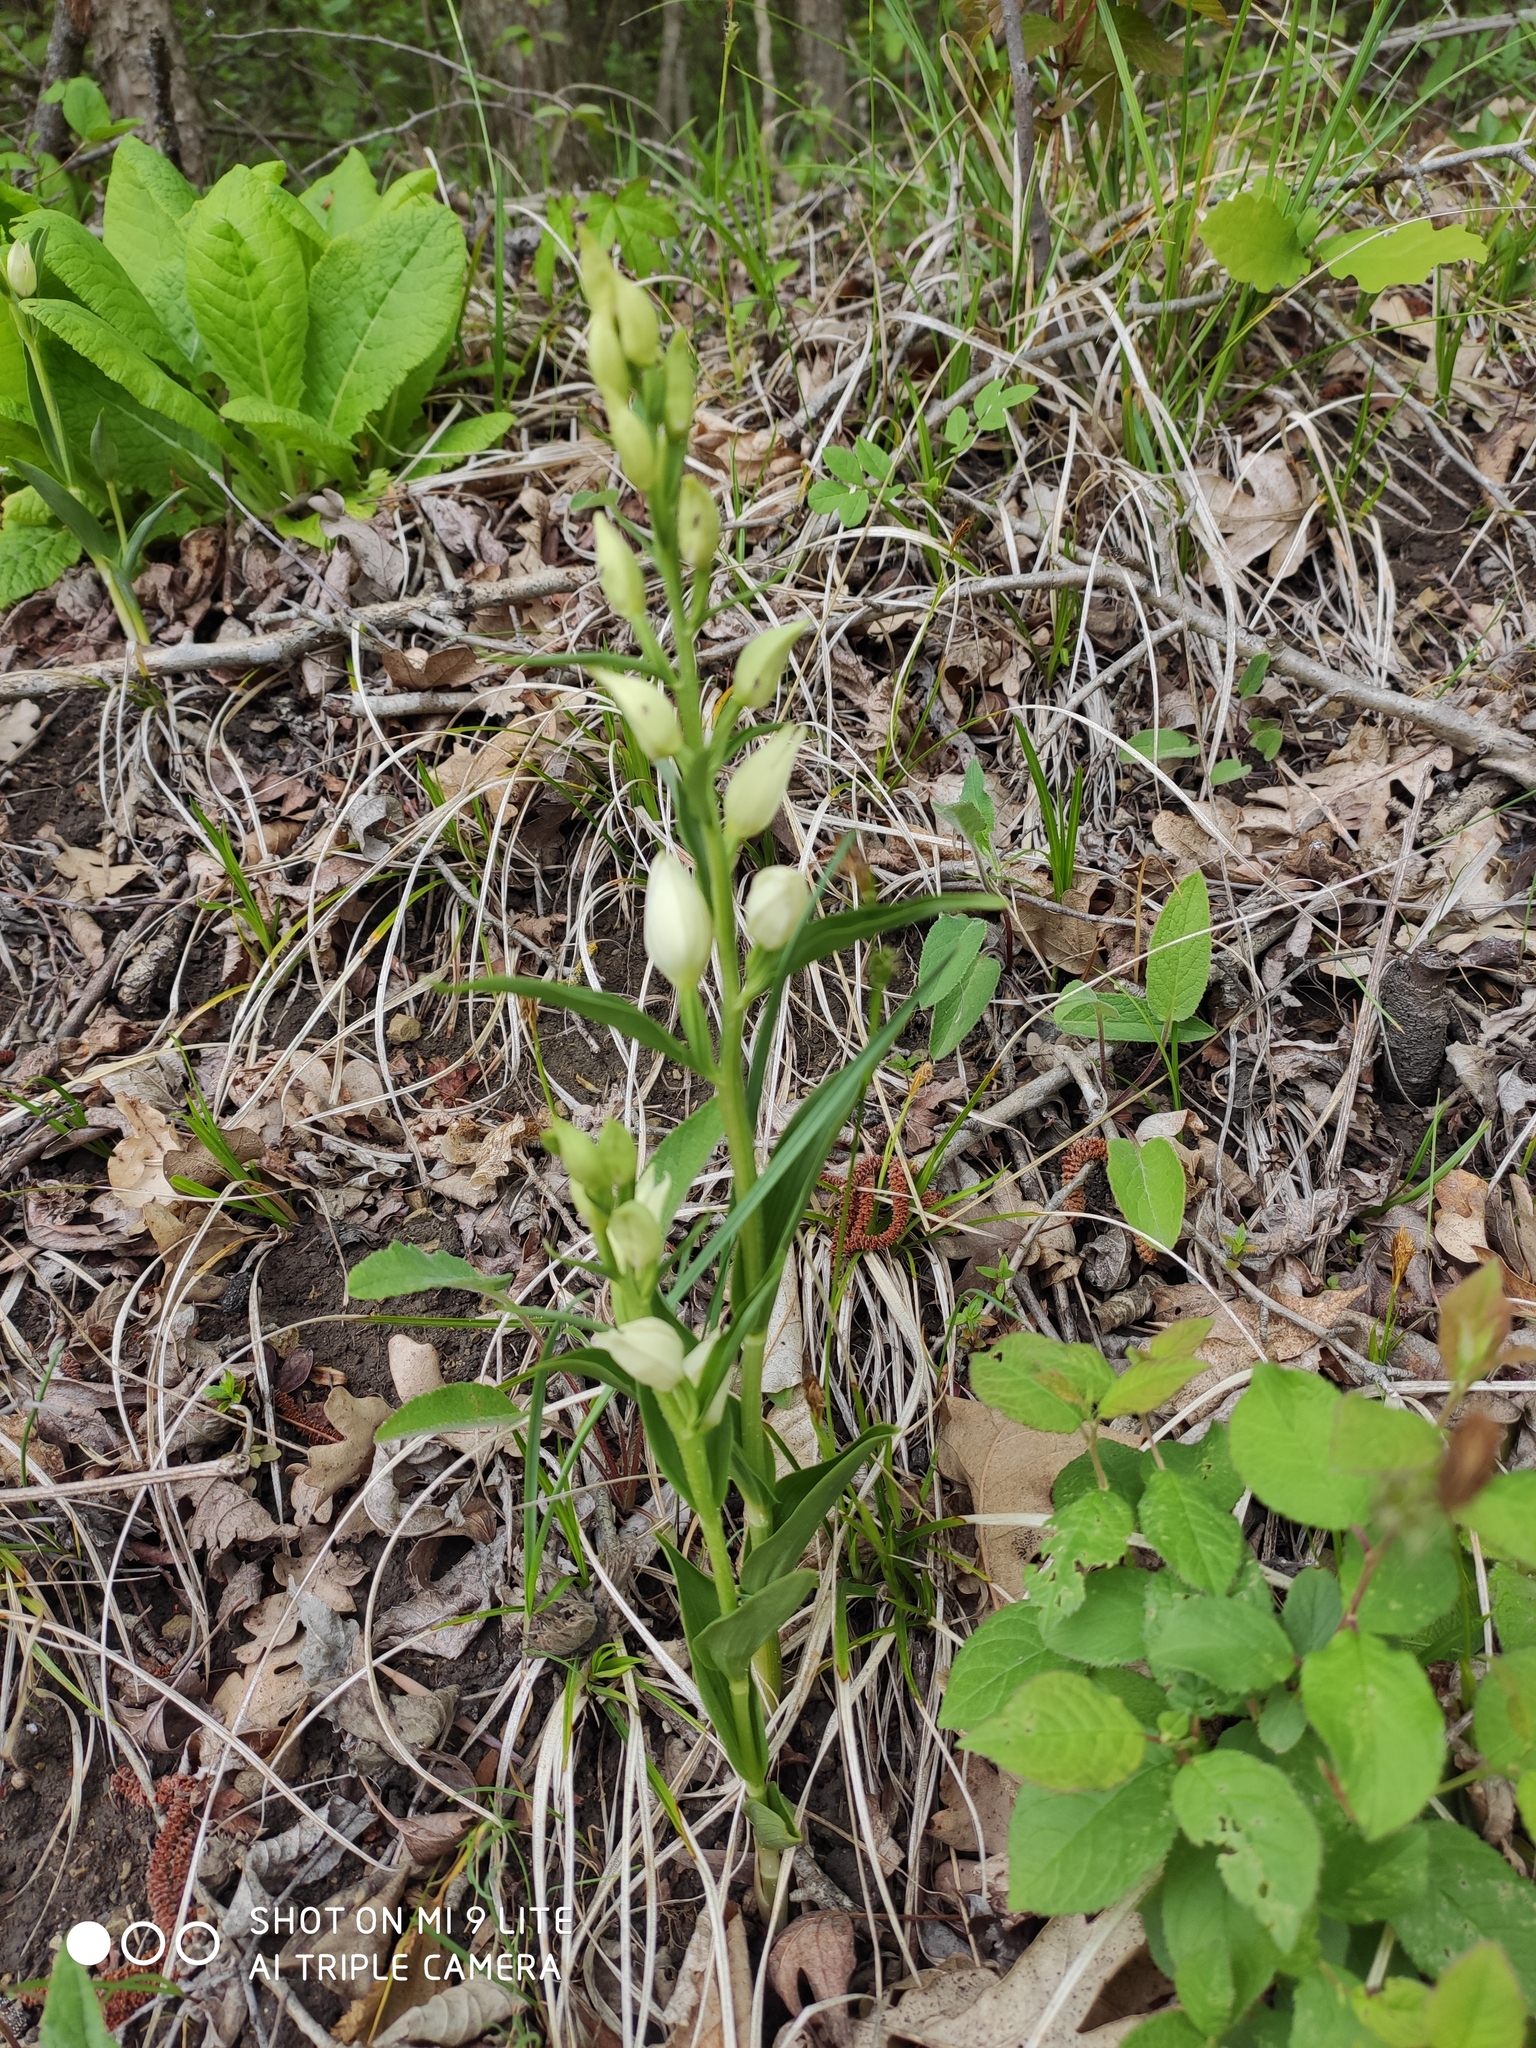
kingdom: Plantae
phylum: Tracheophyta
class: Liliopsida
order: Asparagales
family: Orchidaceae
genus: Cephalanthera
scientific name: Cephalanthera damasonium
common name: White helleborine
